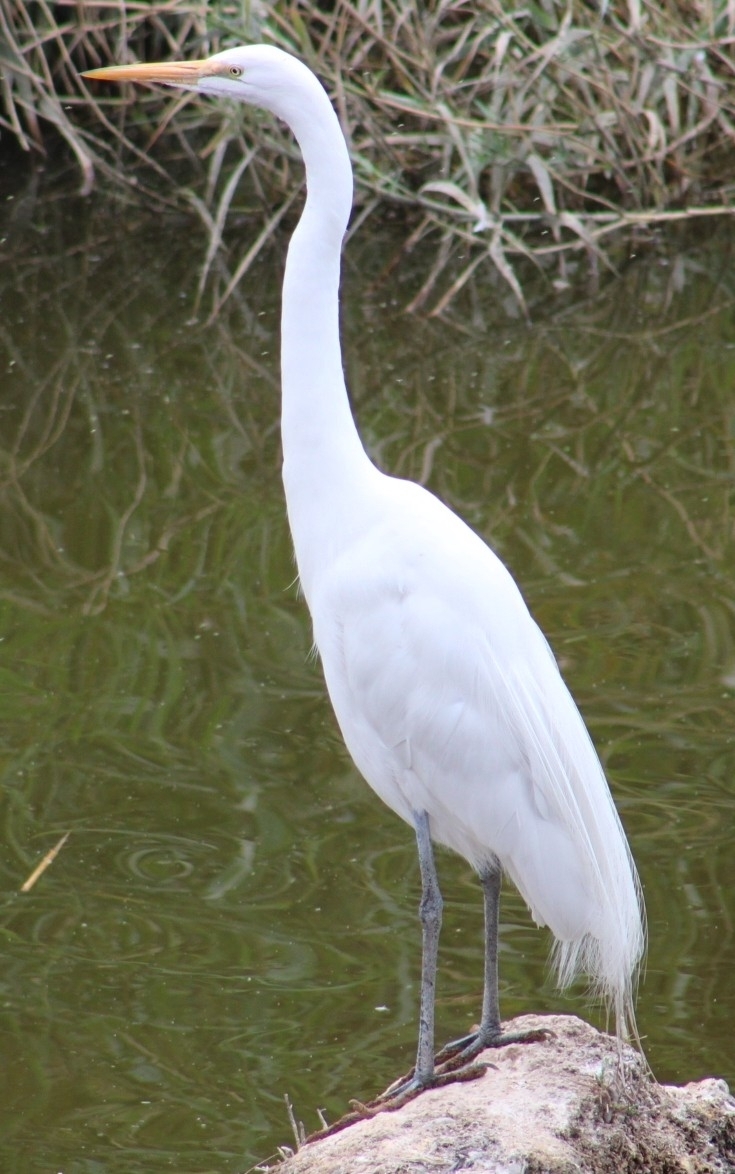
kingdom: Animalia
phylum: Chordata
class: Aves
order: Pelecaniformes
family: Ardeidae
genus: Ardea
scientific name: Ardea alba
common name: Great egret
